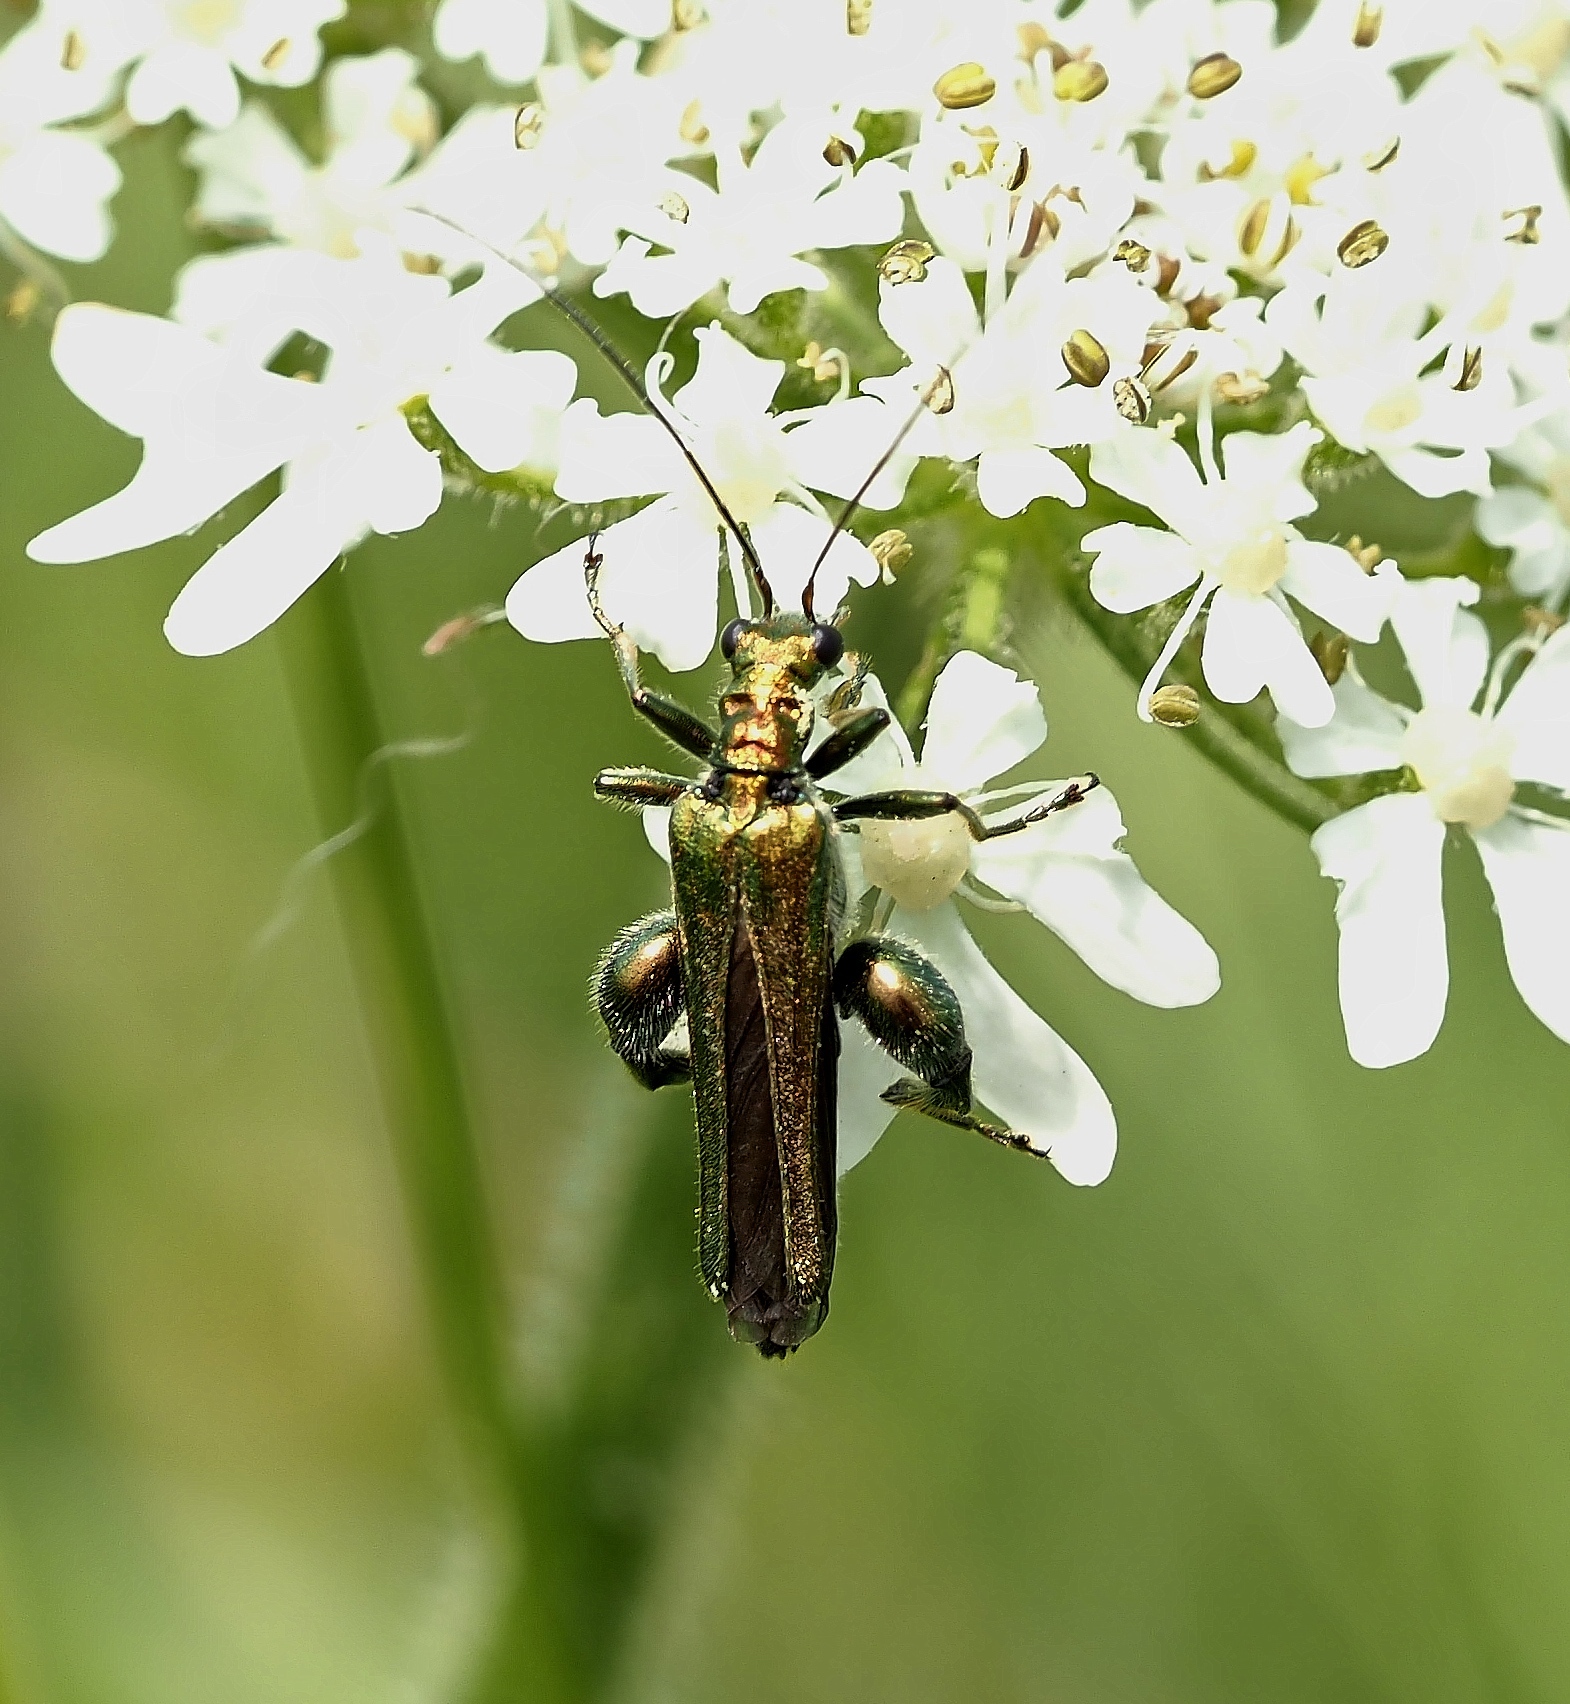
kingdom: Animalia
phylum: Arthropoda
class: Insecta
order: Coleoptera
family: Oedemeridae
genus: Oedemera
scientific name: Oedemera nobilis
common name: Swollen-thighed beetle
